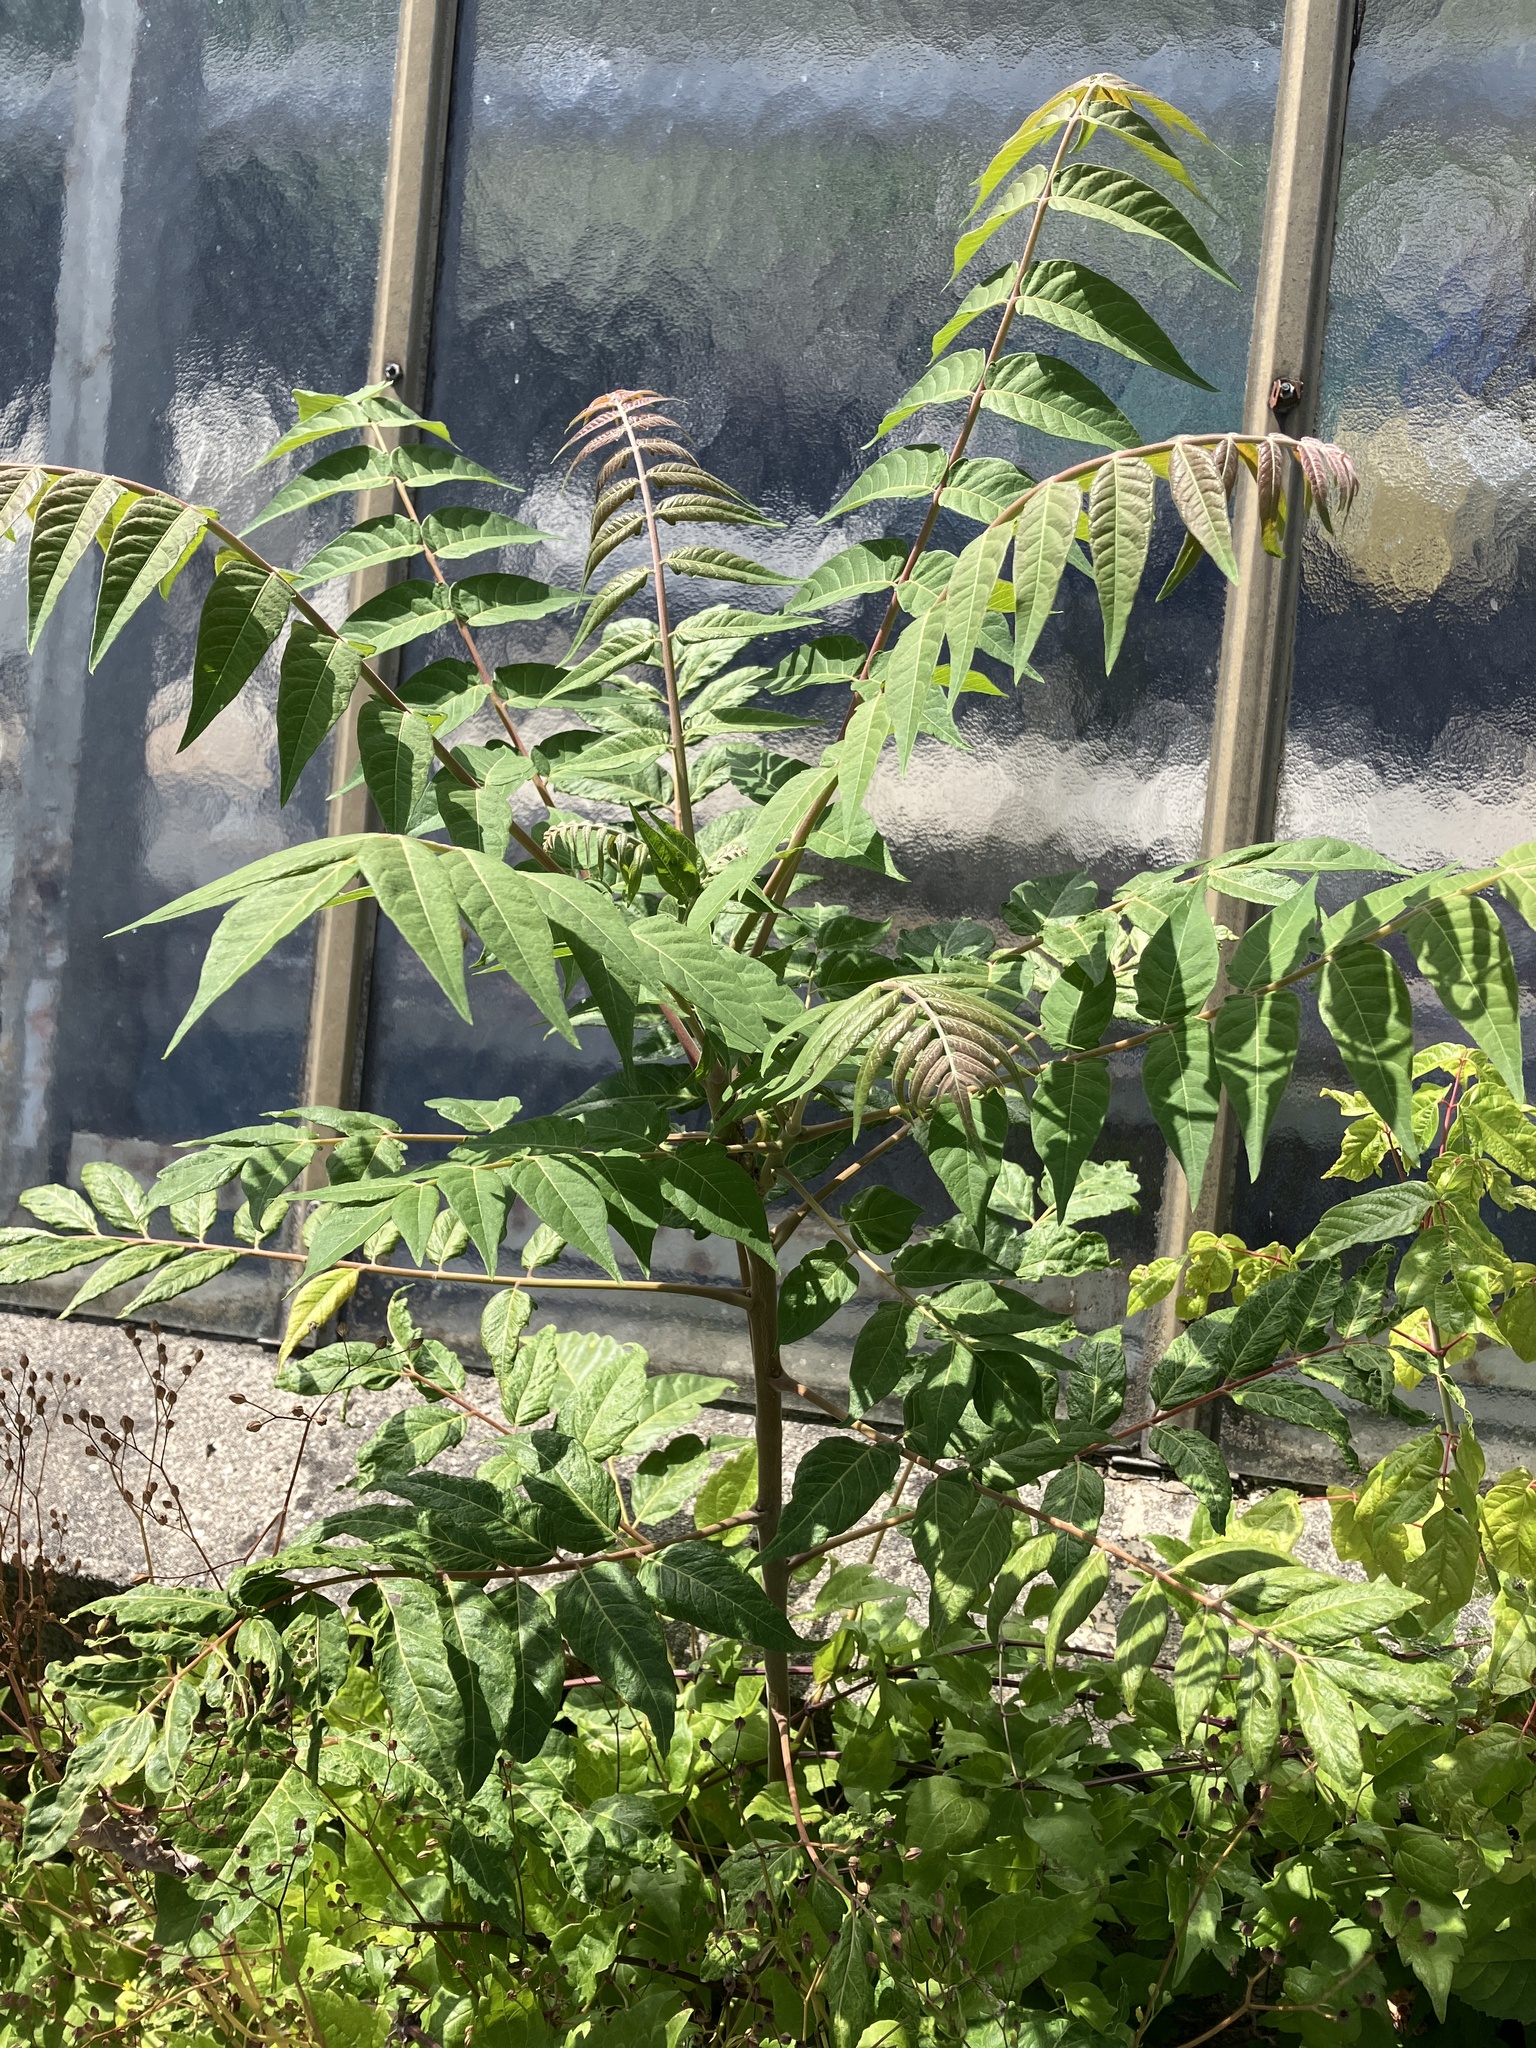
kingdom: Plantae
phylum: Tracheophyta
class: Magnoliopsida
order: Sapindales
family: Simaroubaceae
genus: Ailanthus
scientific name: Ailanthus altissima
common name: Tree-of-heaven
